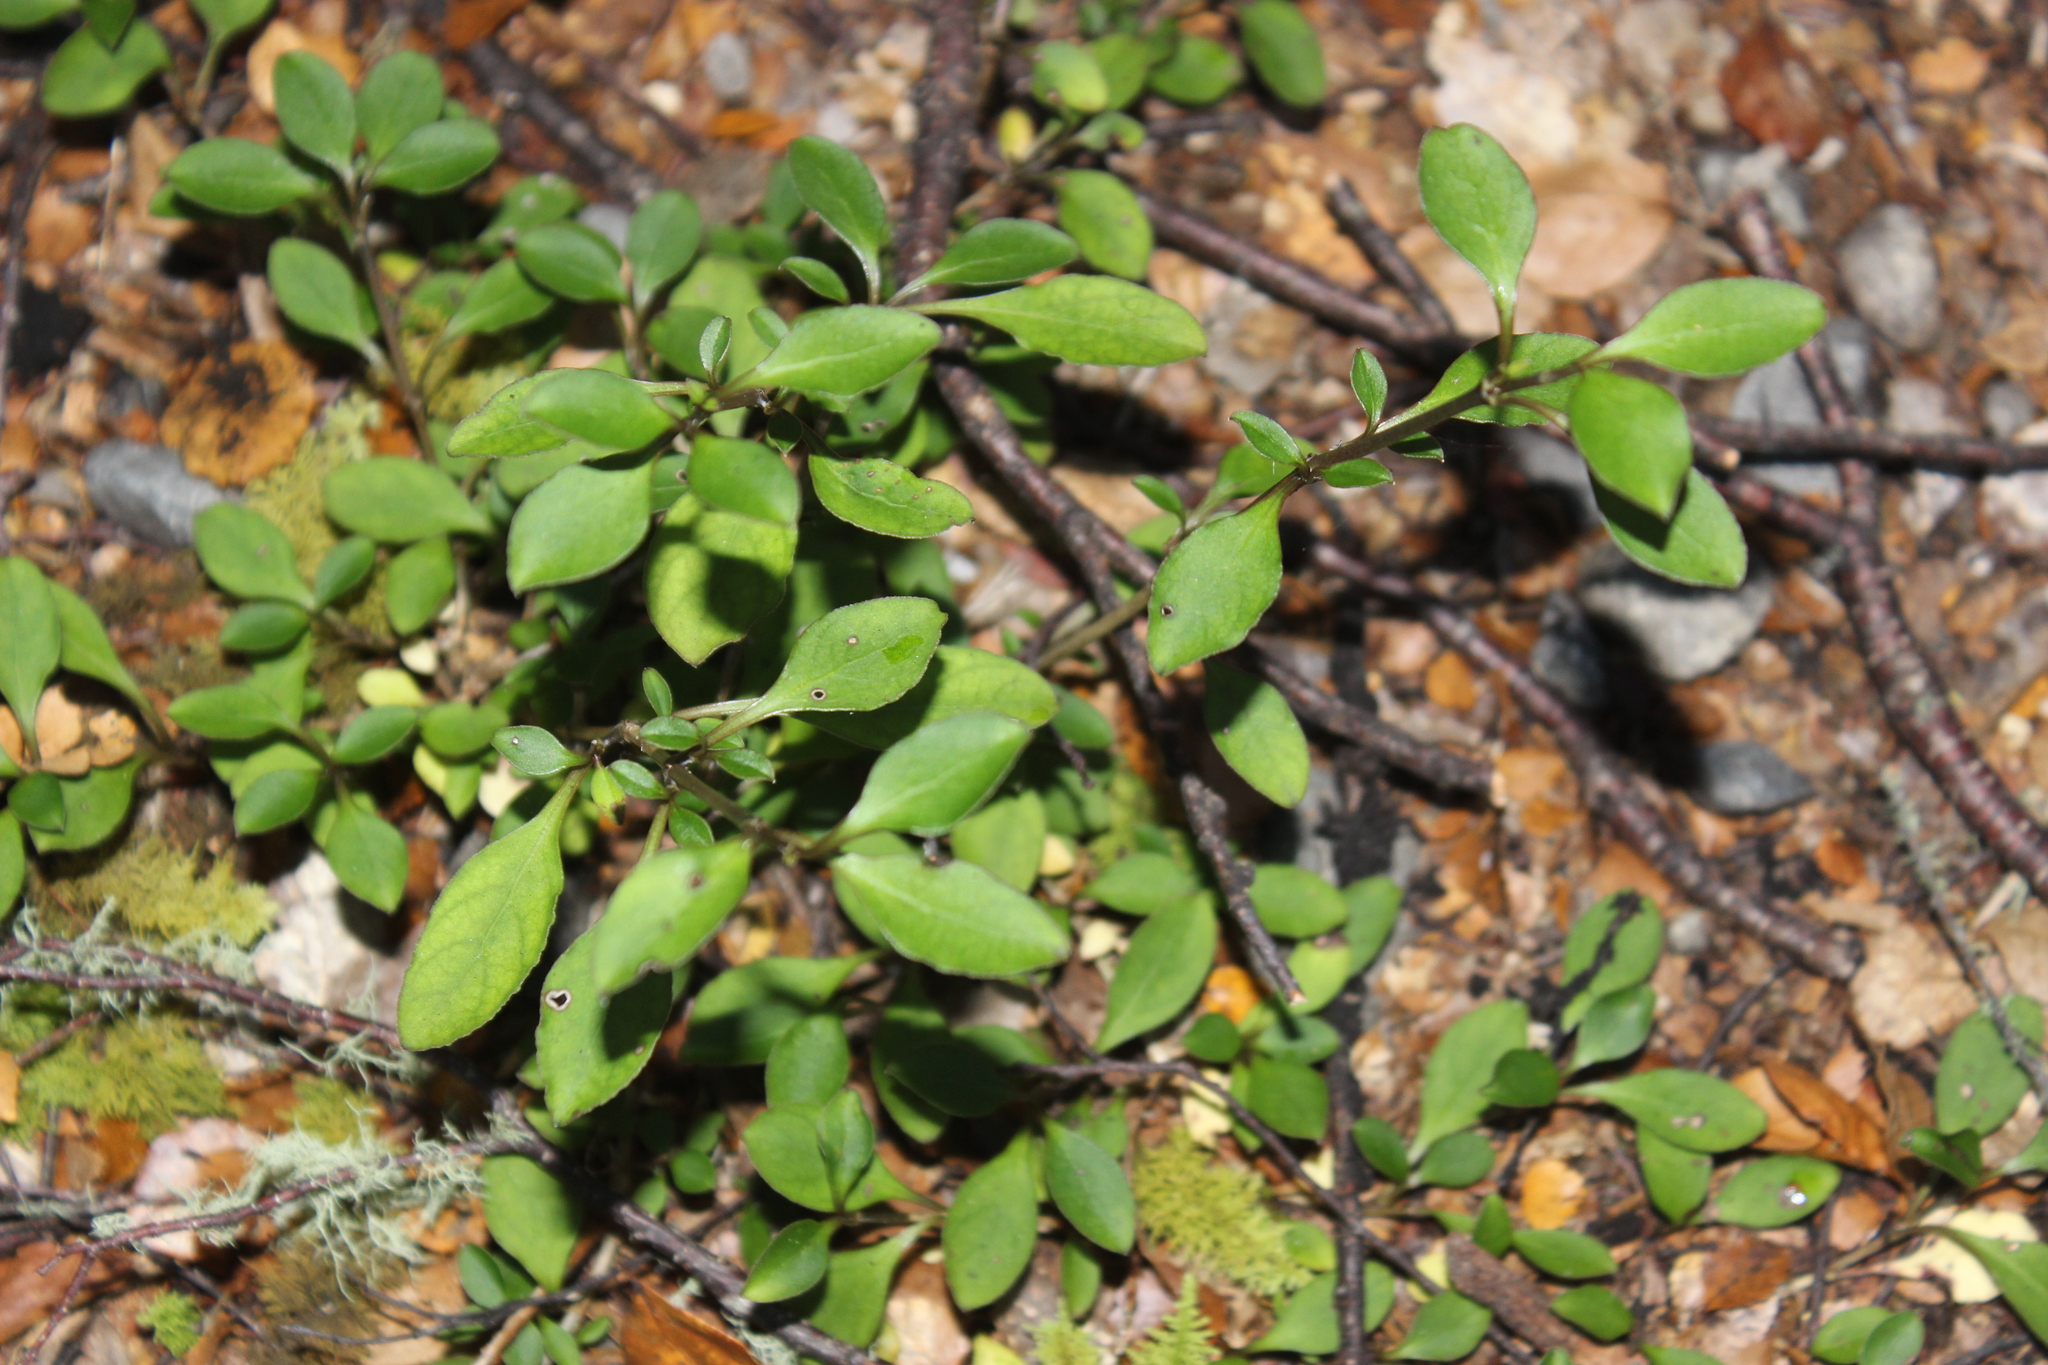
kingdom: Plantae
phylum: Tracheophyta
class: Magnoliopsida
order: Gentianales
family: Rubiaceae
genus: Coprosma
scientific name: Coprosma foetidissima
